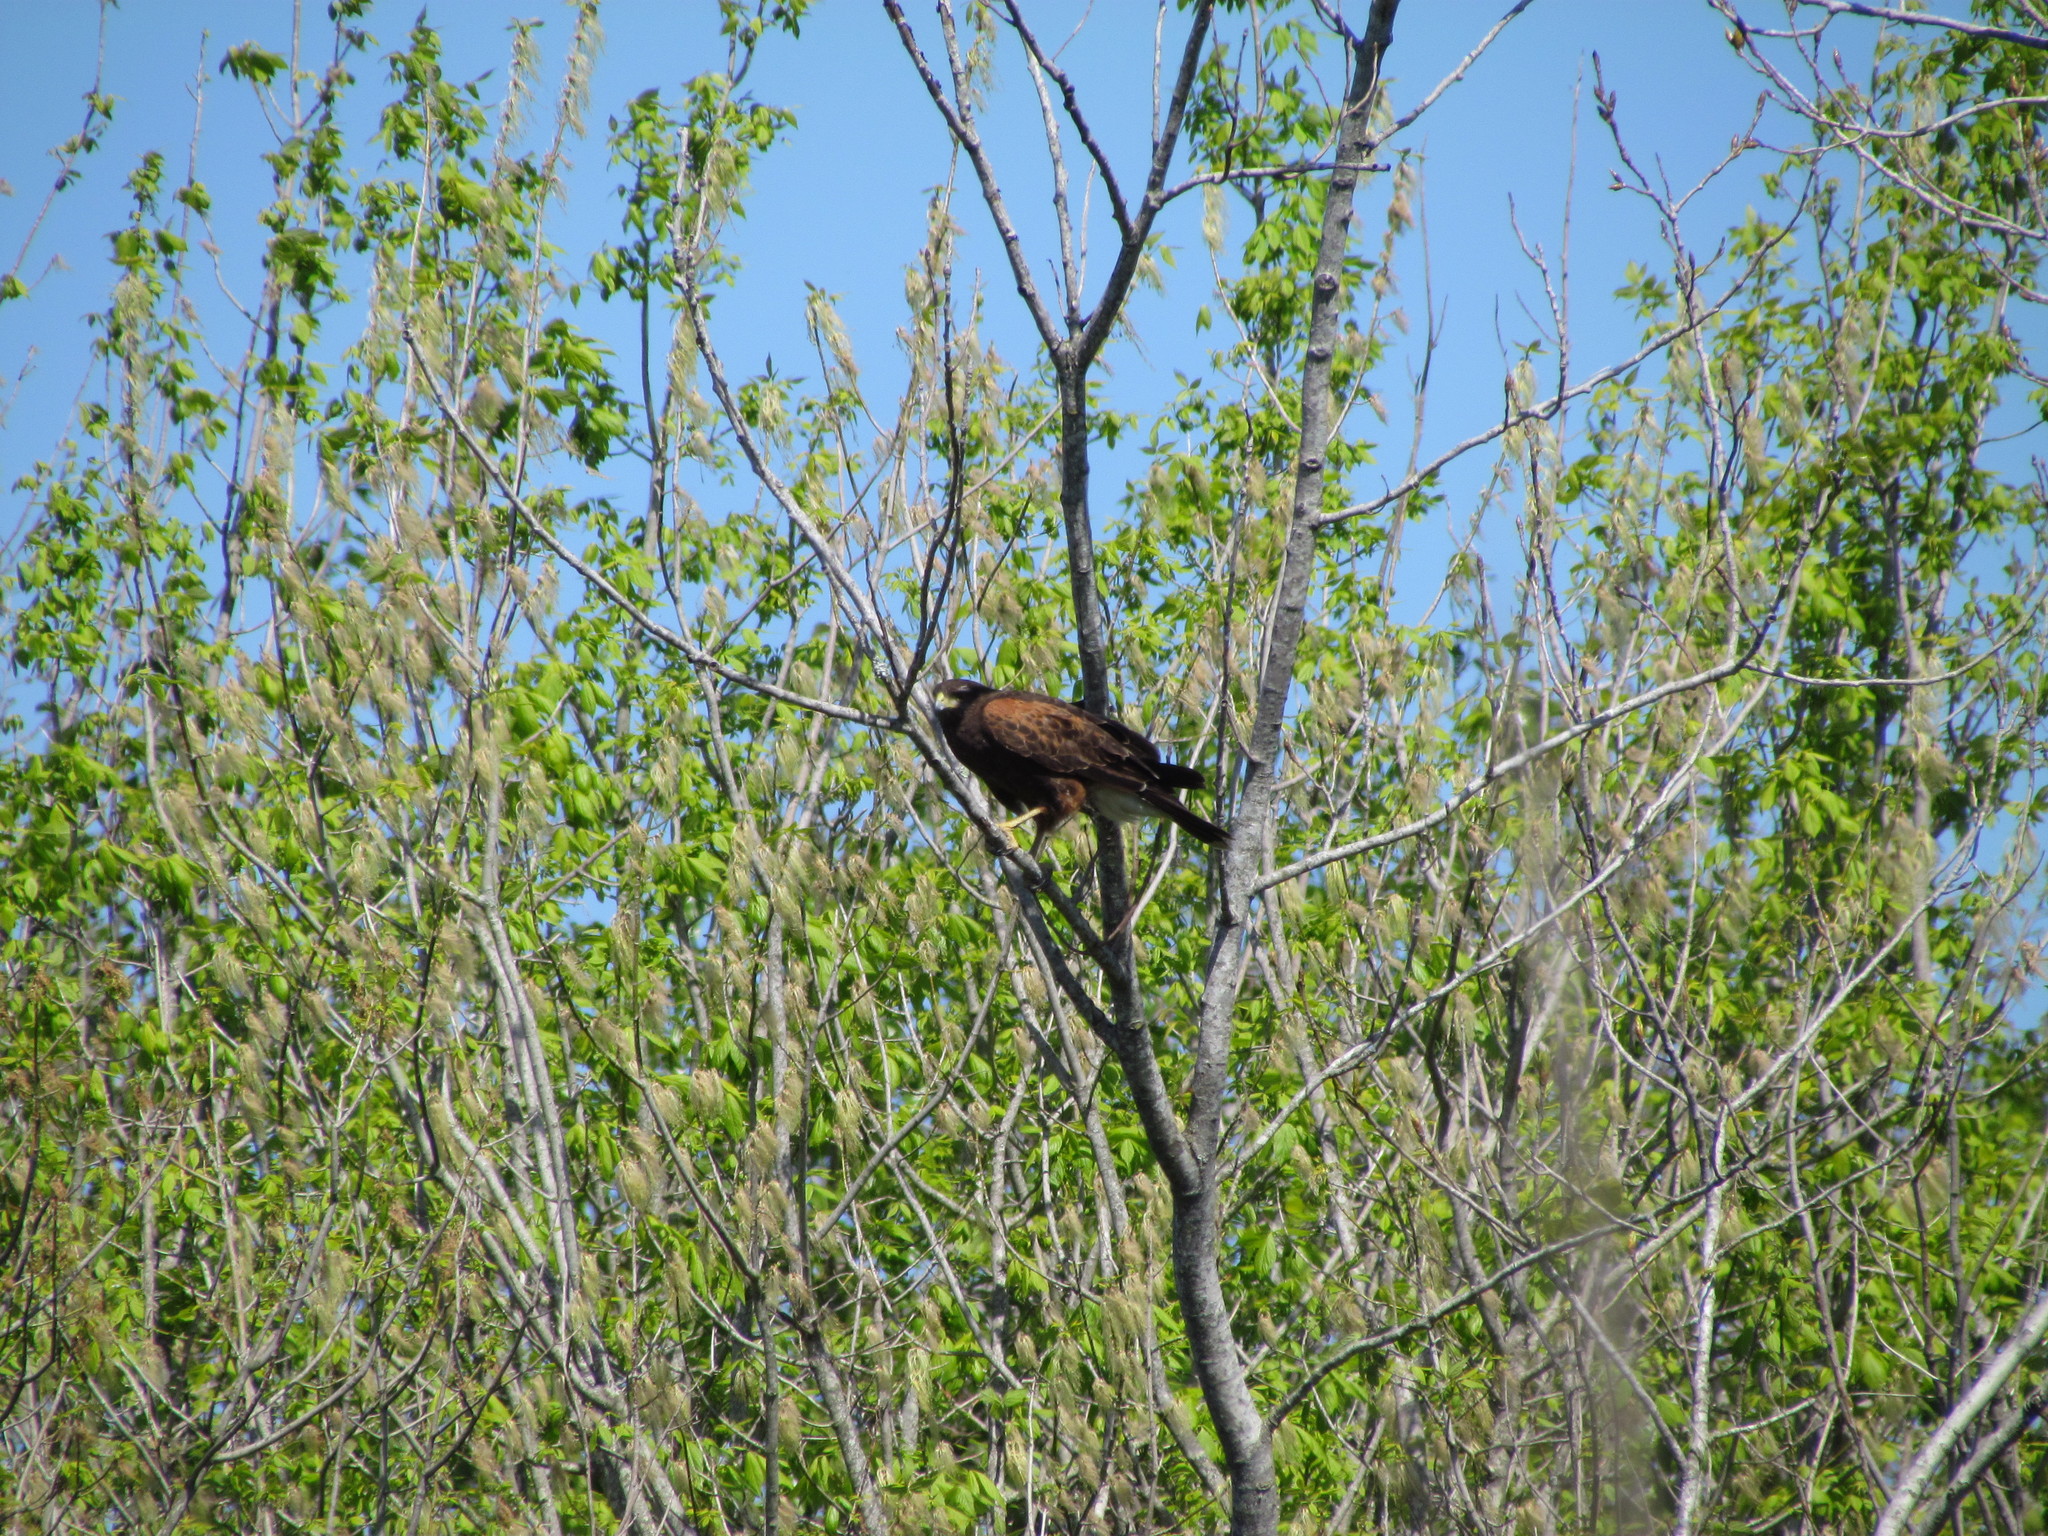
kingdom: Animalia
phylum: Chordata
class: Aves
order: Accipitriformes
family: Accipitridae
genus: Parabuteo
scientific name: Parabuteo unicinctus
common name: Harris's hawk
